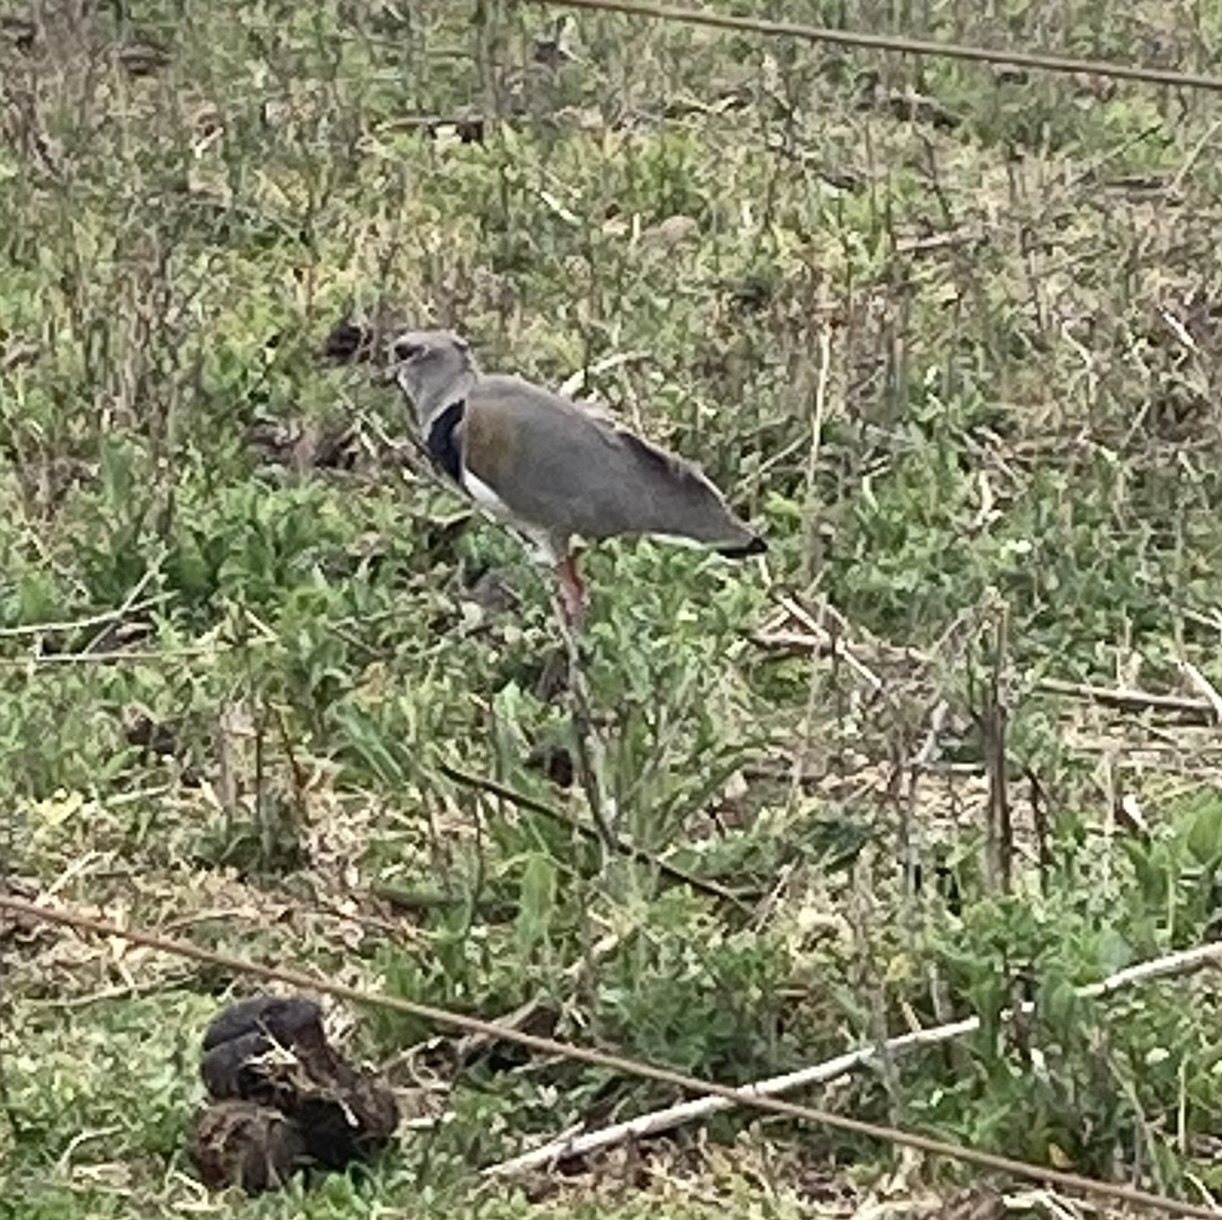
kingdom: Animalia
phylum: Chordata
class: Aves
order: Charadriiformes
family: Charadriidae
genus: Vanellus
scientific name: Vanellus chilensis
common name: Southern lapwing
